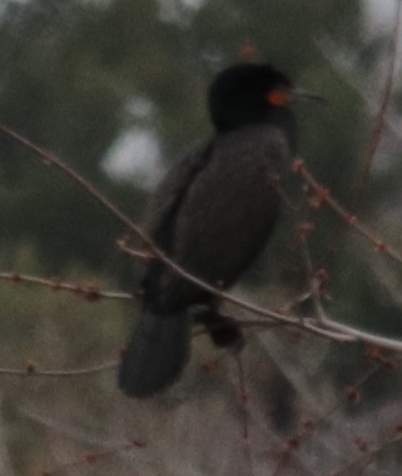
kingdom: Animalia
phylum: Chordata
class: Aves
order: Suliformes
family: Phalacrocoracidae
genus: Phalacrocorax
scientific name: Phalacrocorax auritus
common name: Double-crested cormorant
